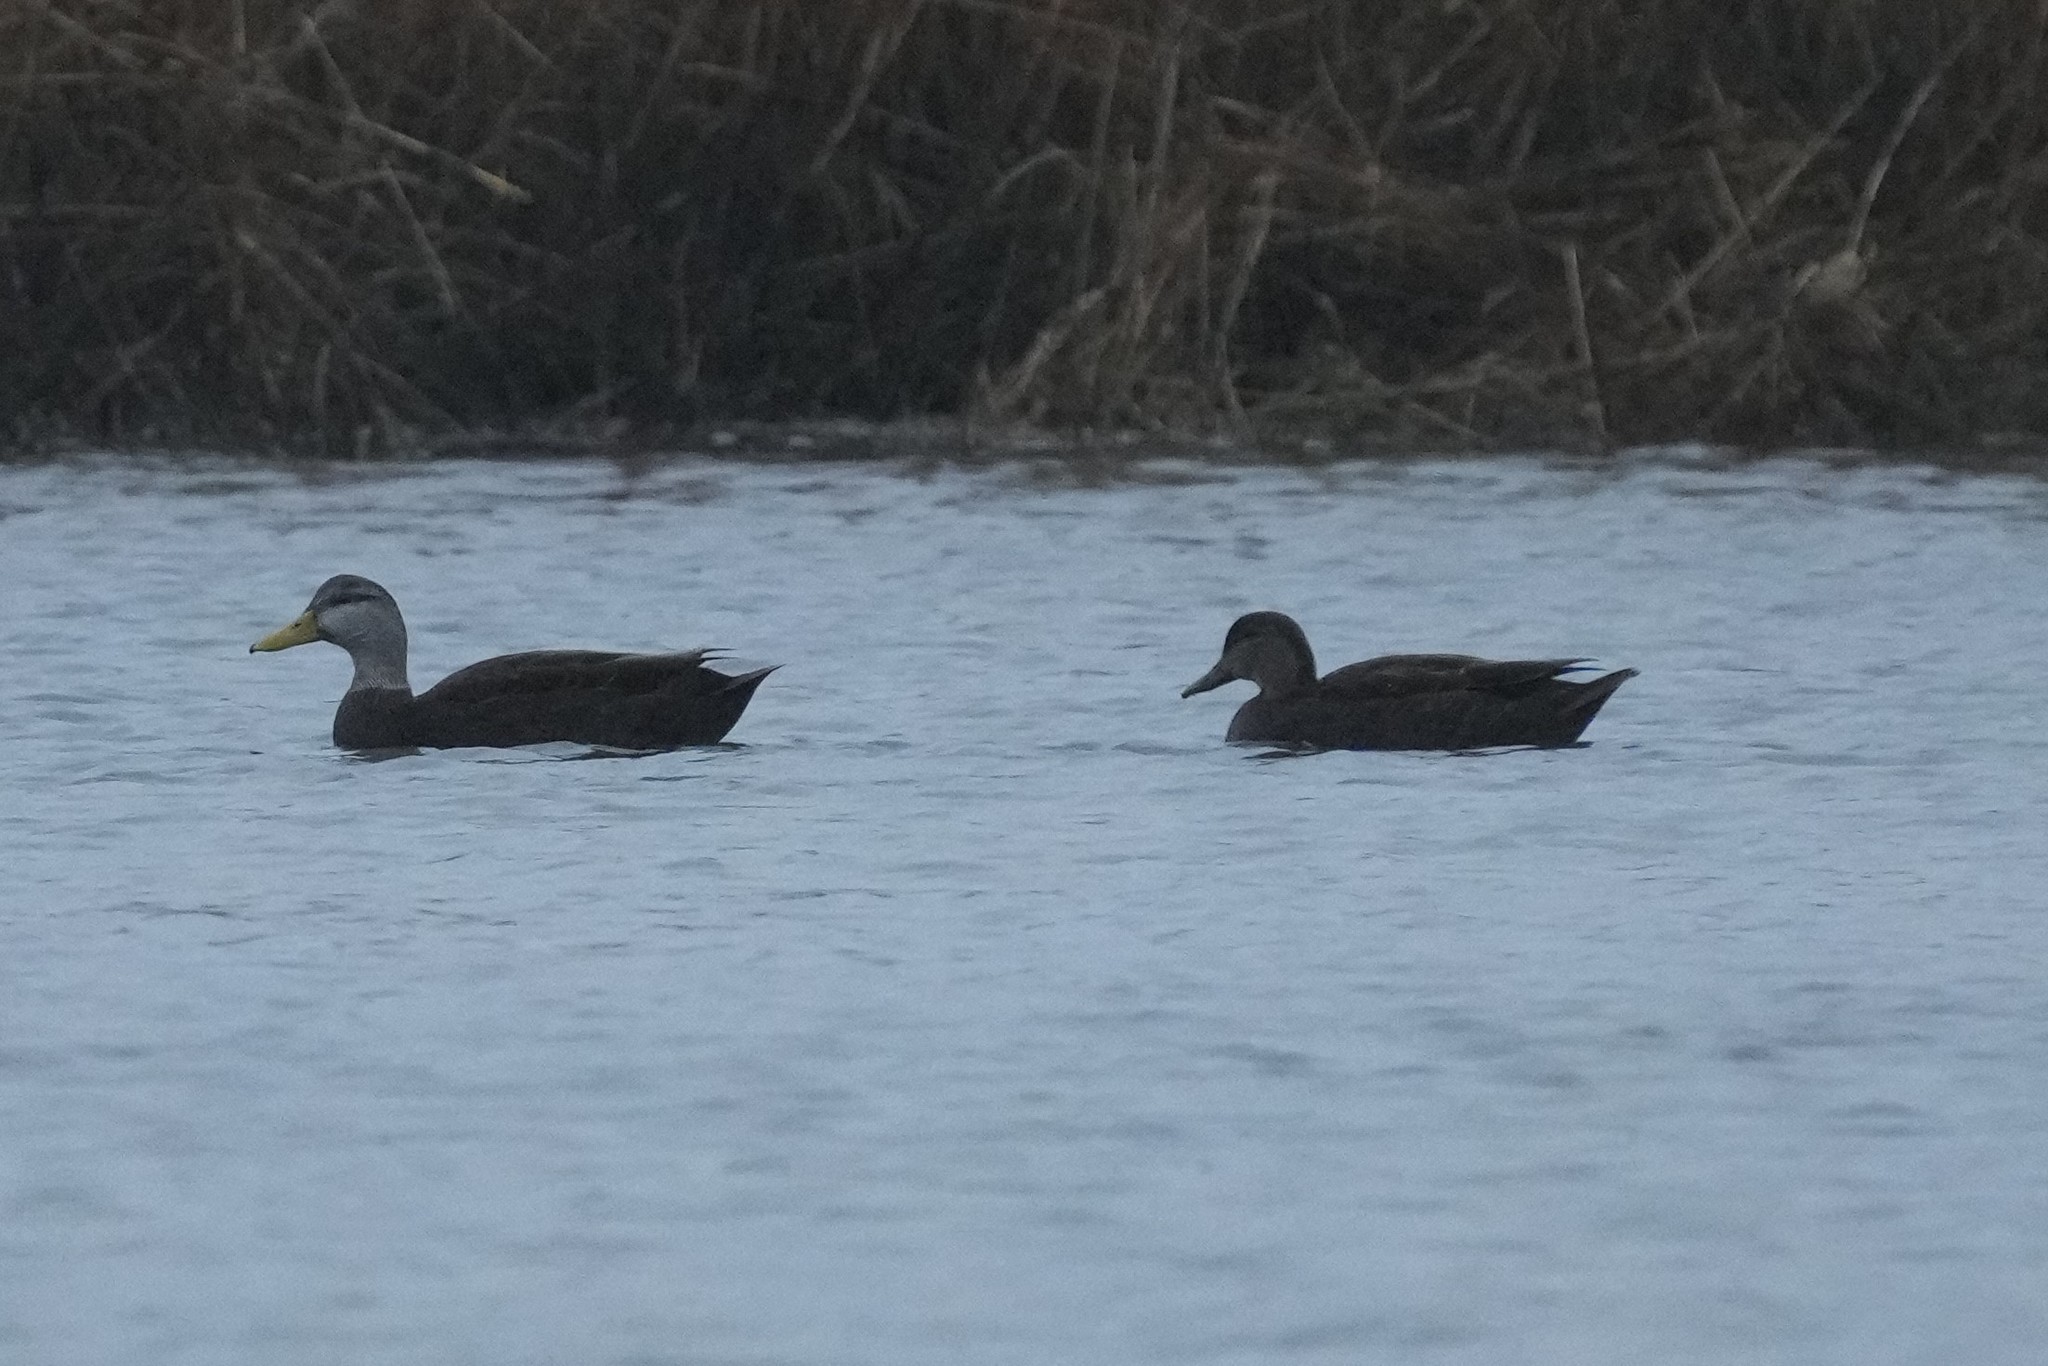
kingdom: Animalia
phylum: Chordata
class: Aves
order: Anseriformes
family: Anatidae
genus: Anas
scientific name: Anas rubripes
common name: American black duck
